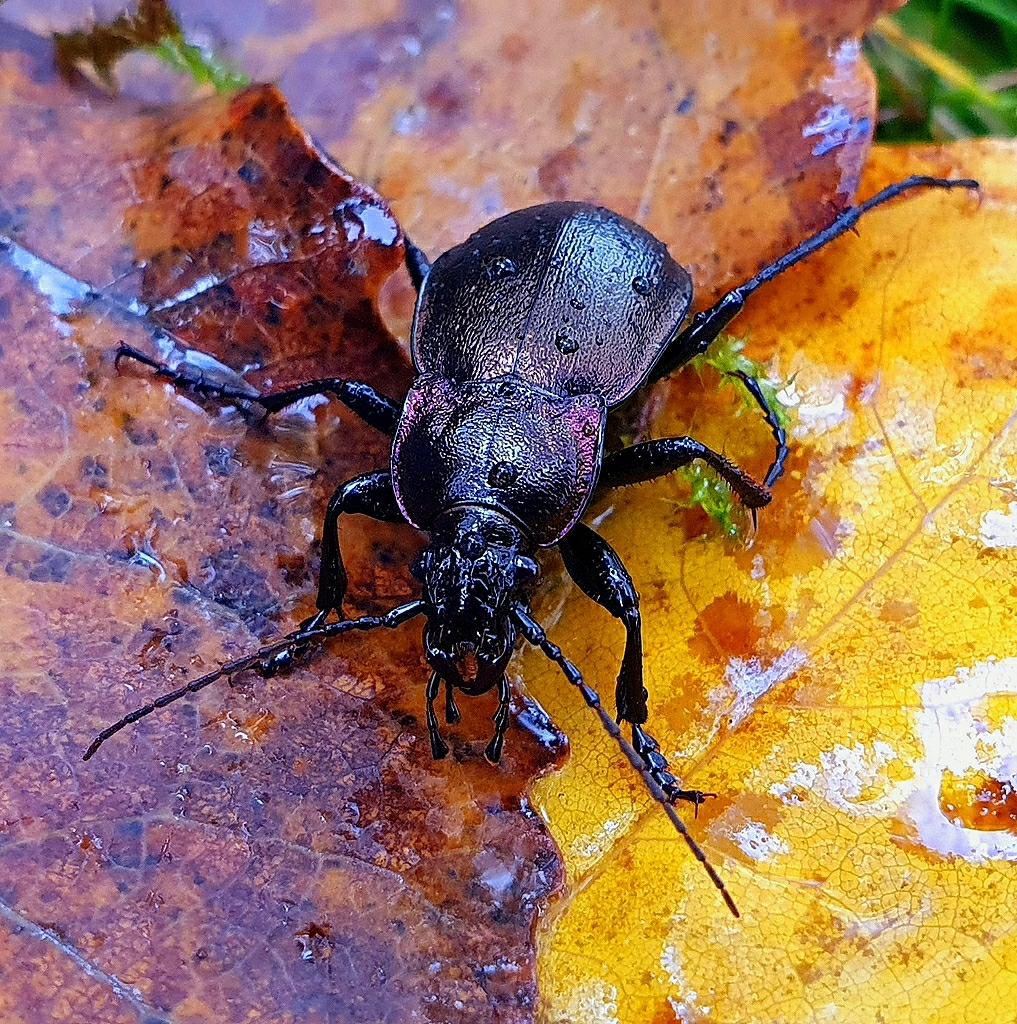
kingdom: Animalia
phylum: Arthropoda
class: Insecta
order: Coleoptera
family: Carabidae
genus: Carabus
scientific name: Carabus nemoralis
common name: European ground beetle
